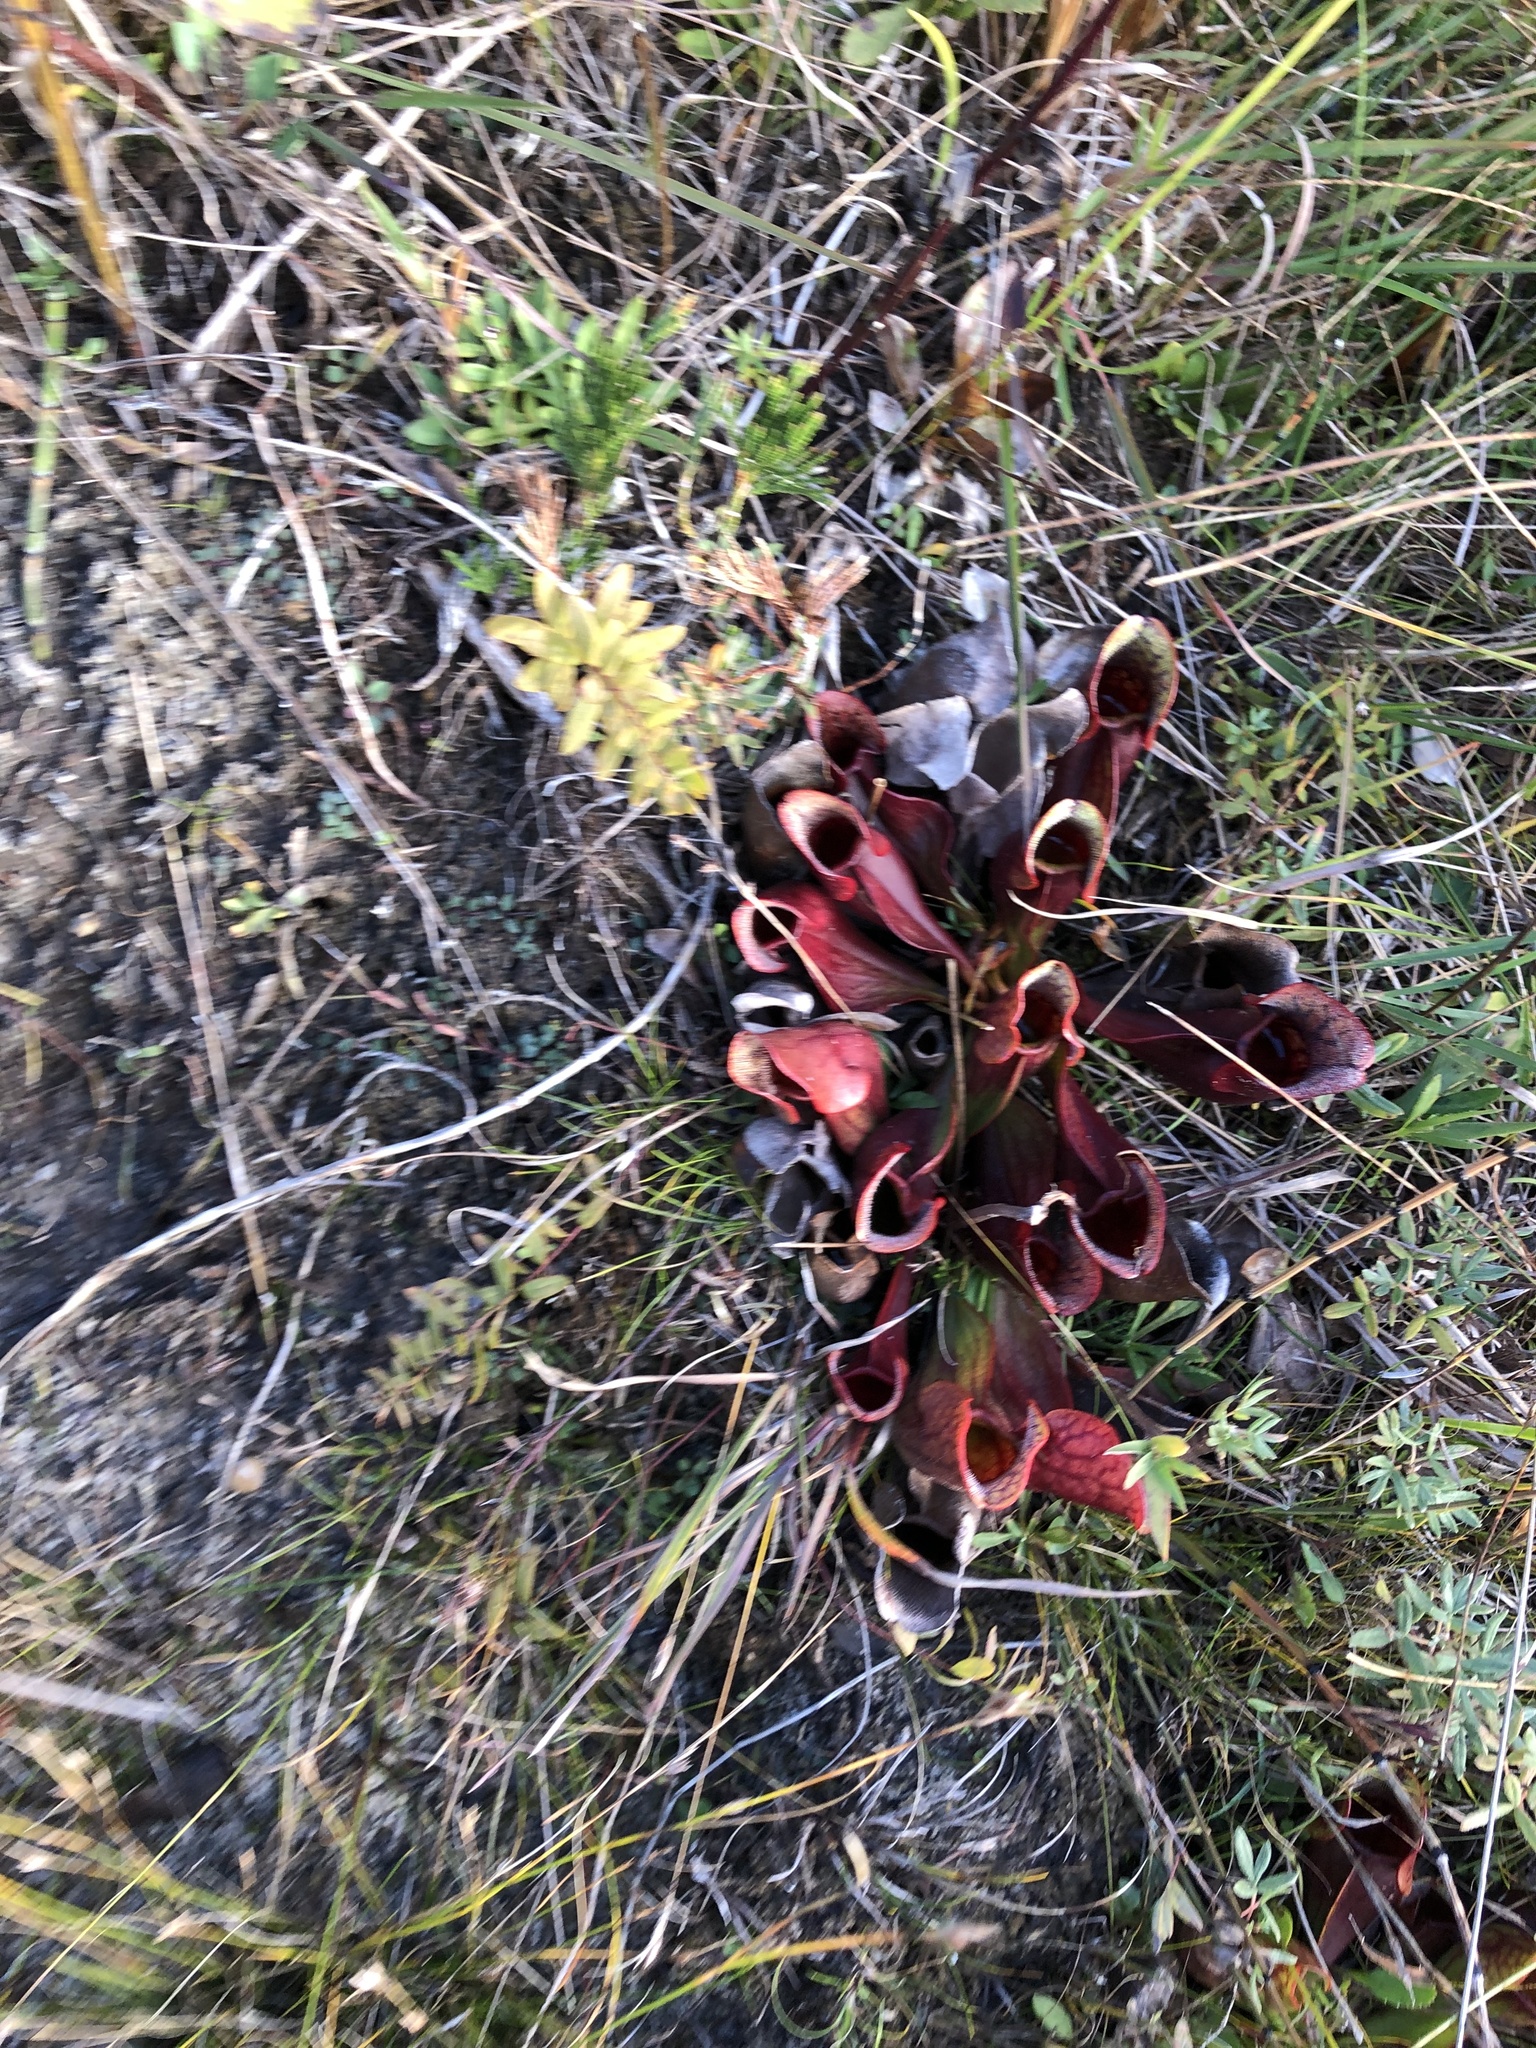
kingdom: Plantae
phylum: Tracheophyta
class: Magnoliopsida
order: Ericales
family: Sarraceniaceae
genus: Sarracenia
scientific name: Sarracenia purpurea
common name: Pitcherplant
